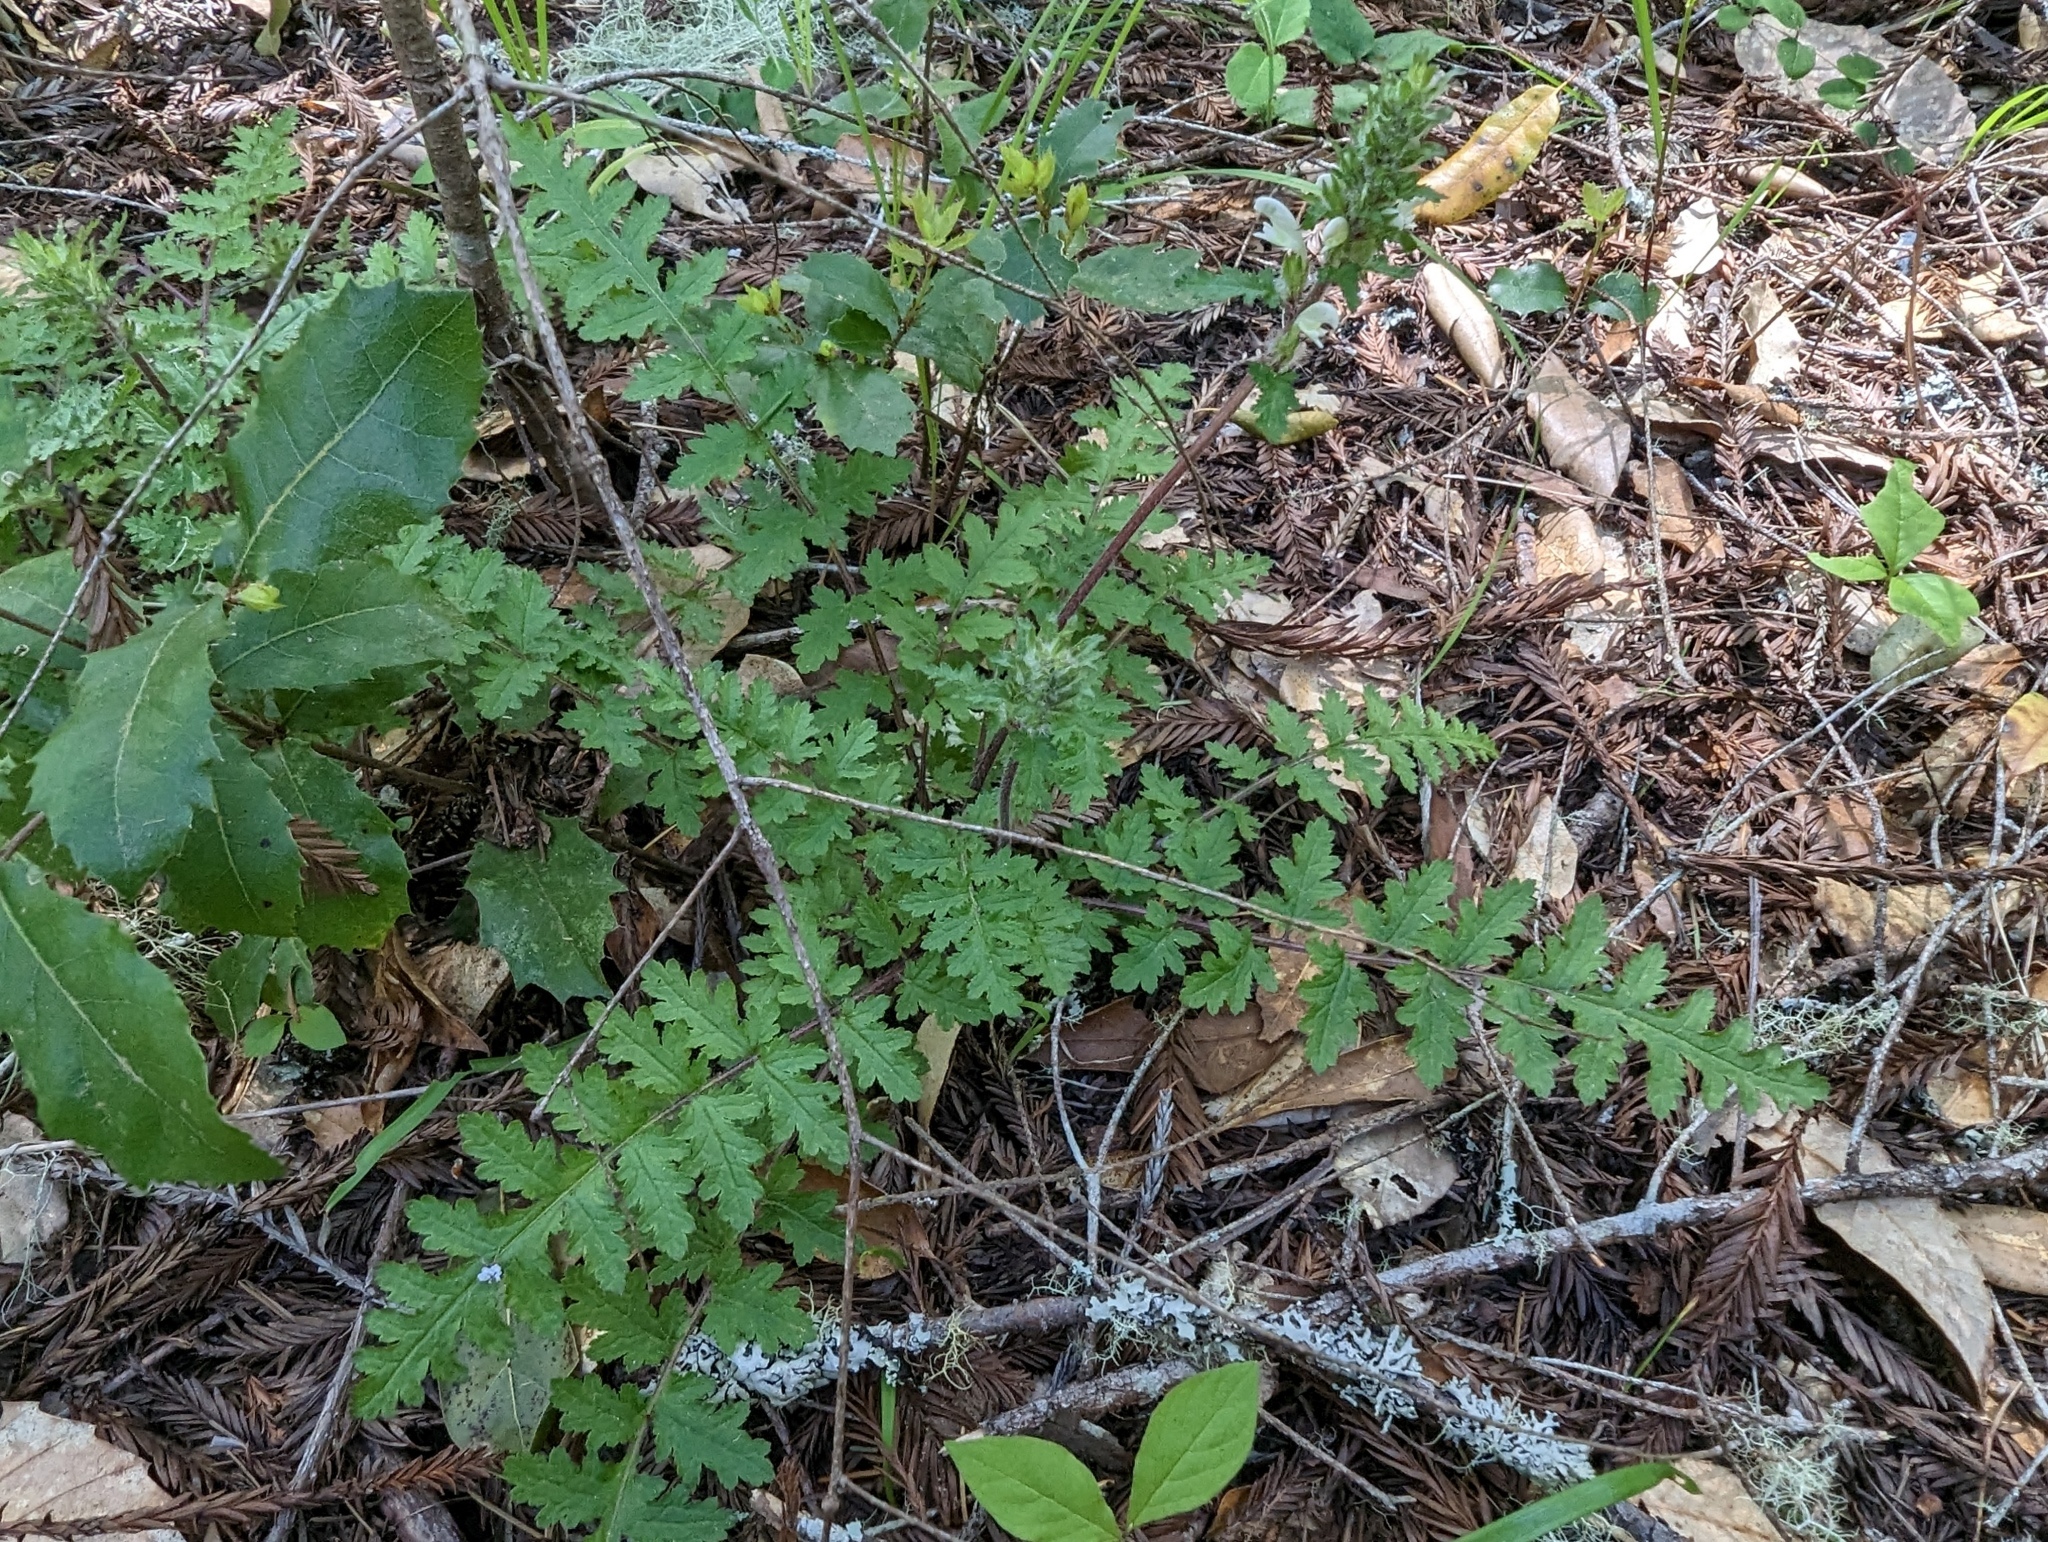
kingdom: Plantae
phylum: Tracheophyta
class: Magnoliopsida
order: Lamiales
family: Orobanchaceae
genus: Pedicularis
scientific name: Pedicularis dudleyi
